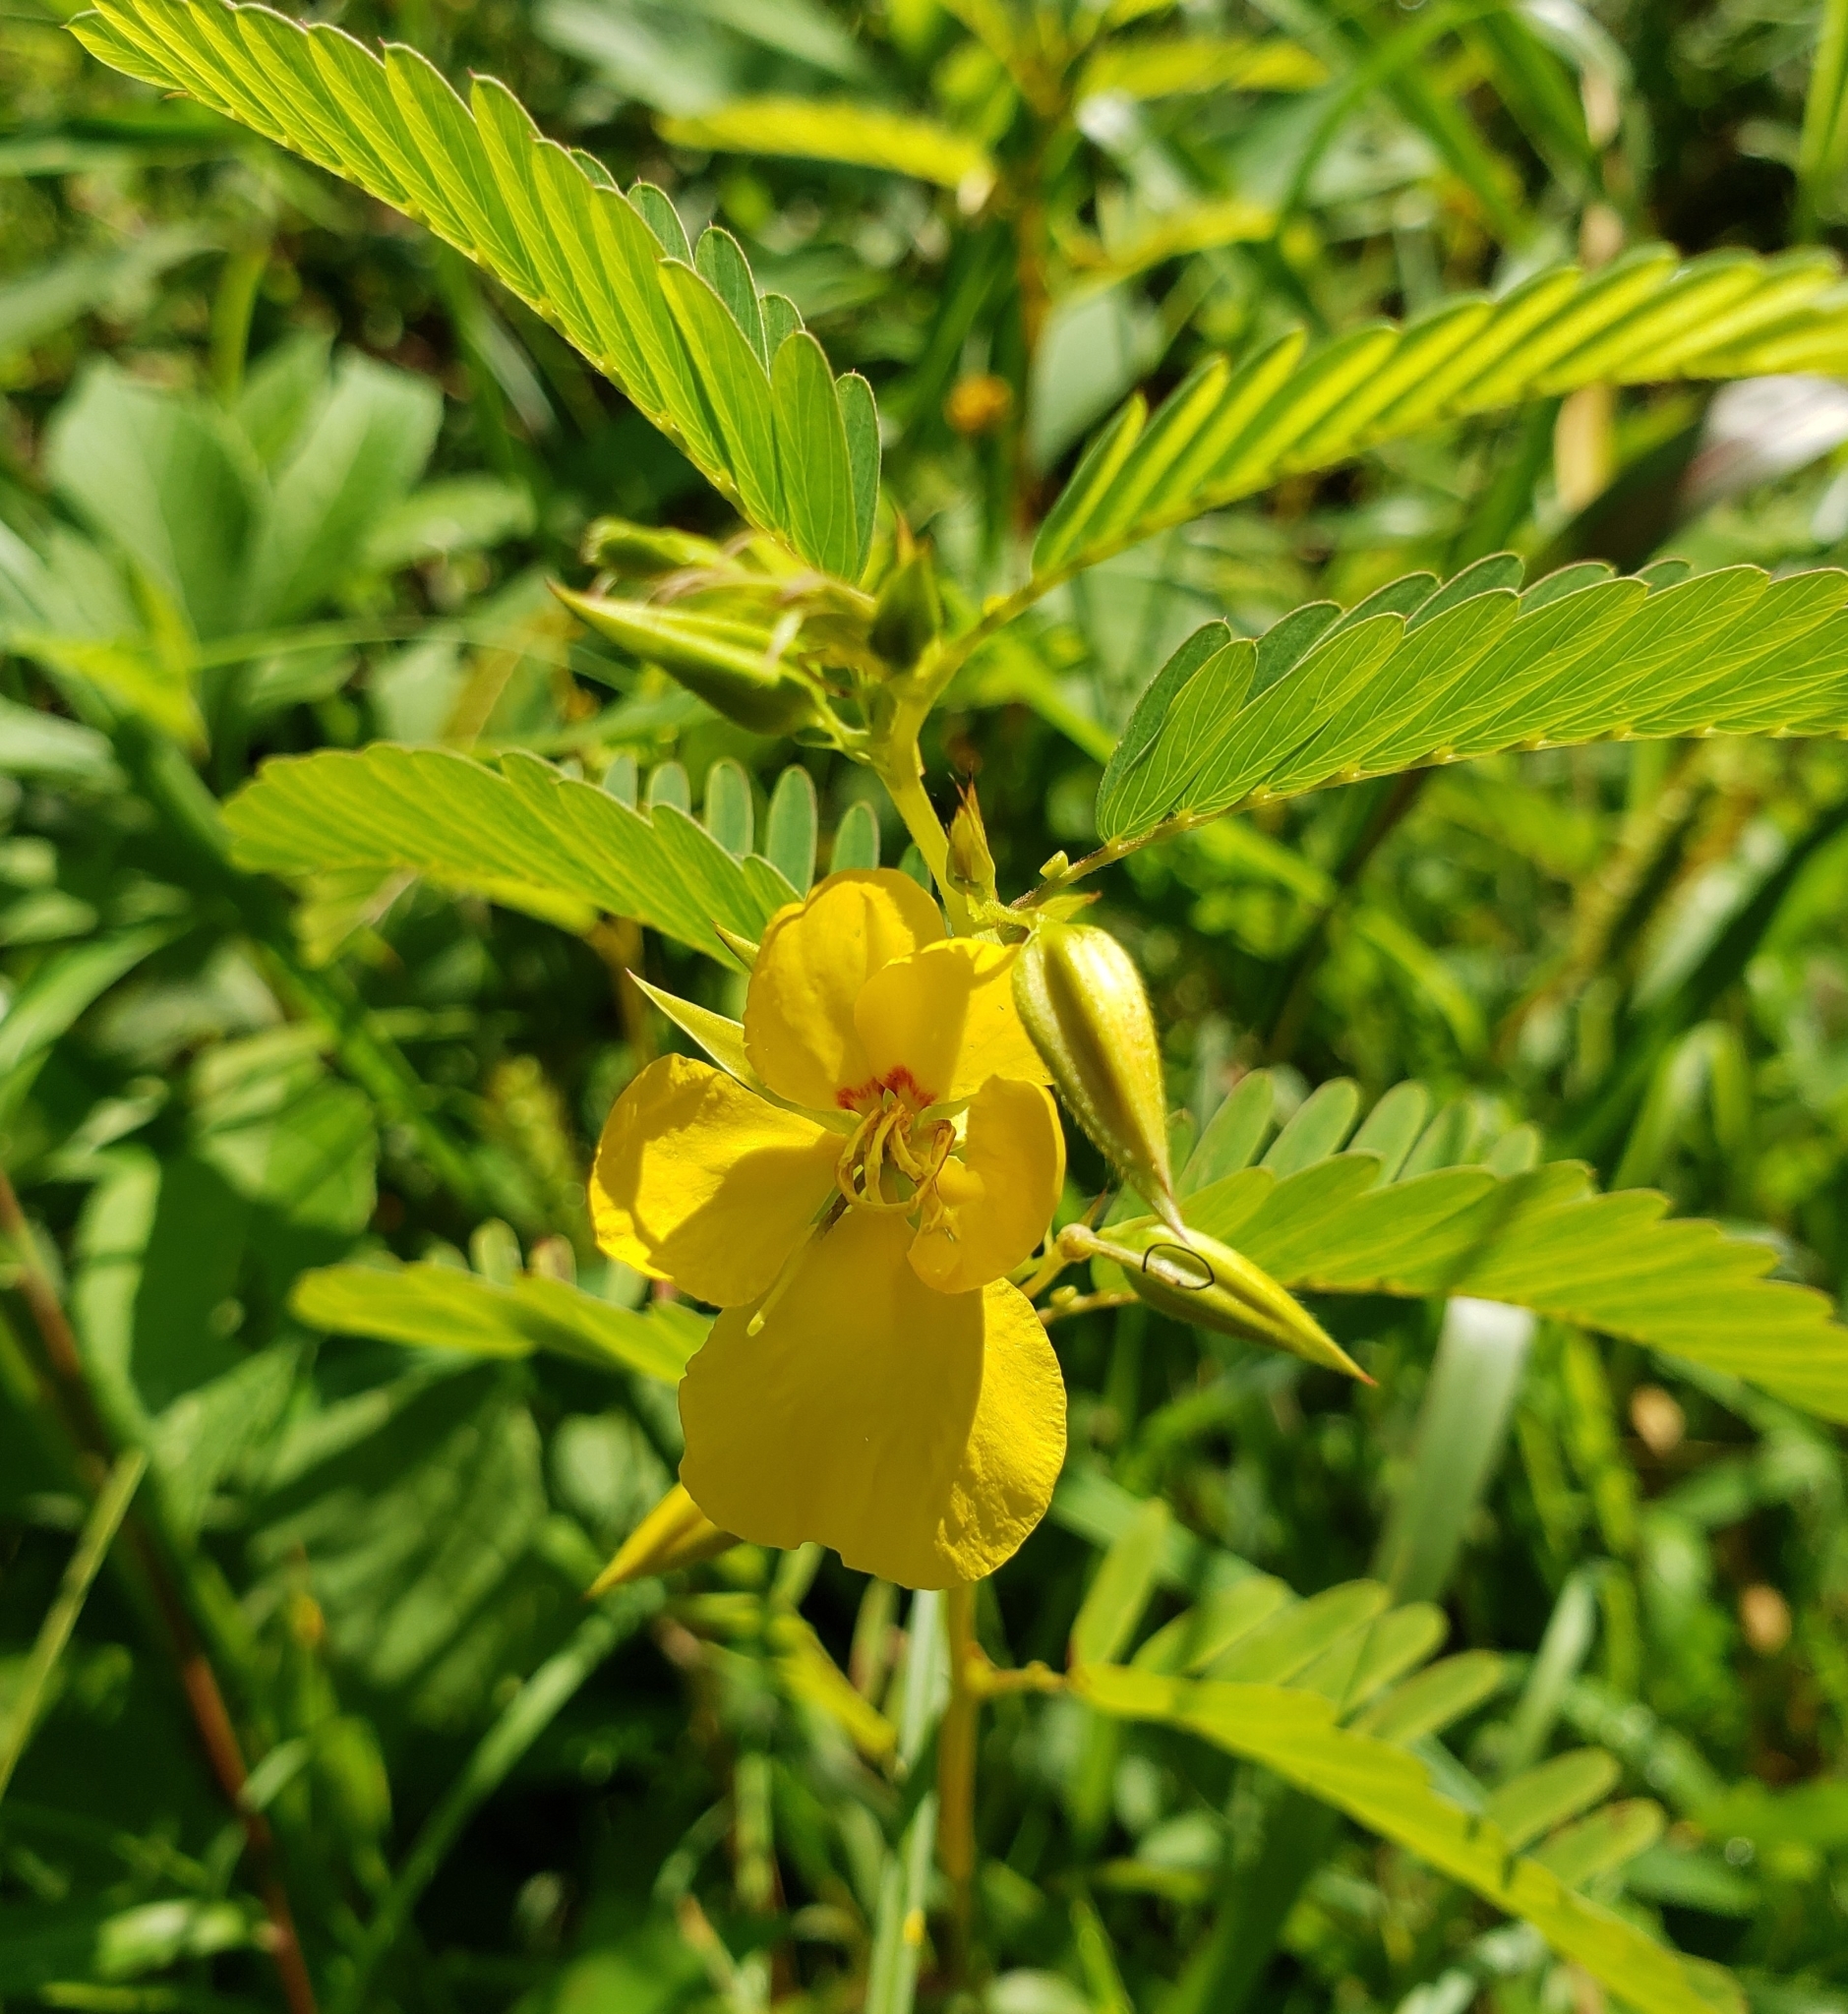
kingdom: Plantae
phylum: Tracheophyta
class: Magnoliopsida
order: Fabales
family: Fabaceae
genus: Chamaecrista
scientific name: Chamaecrista fasciculata
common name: Golden cassia
